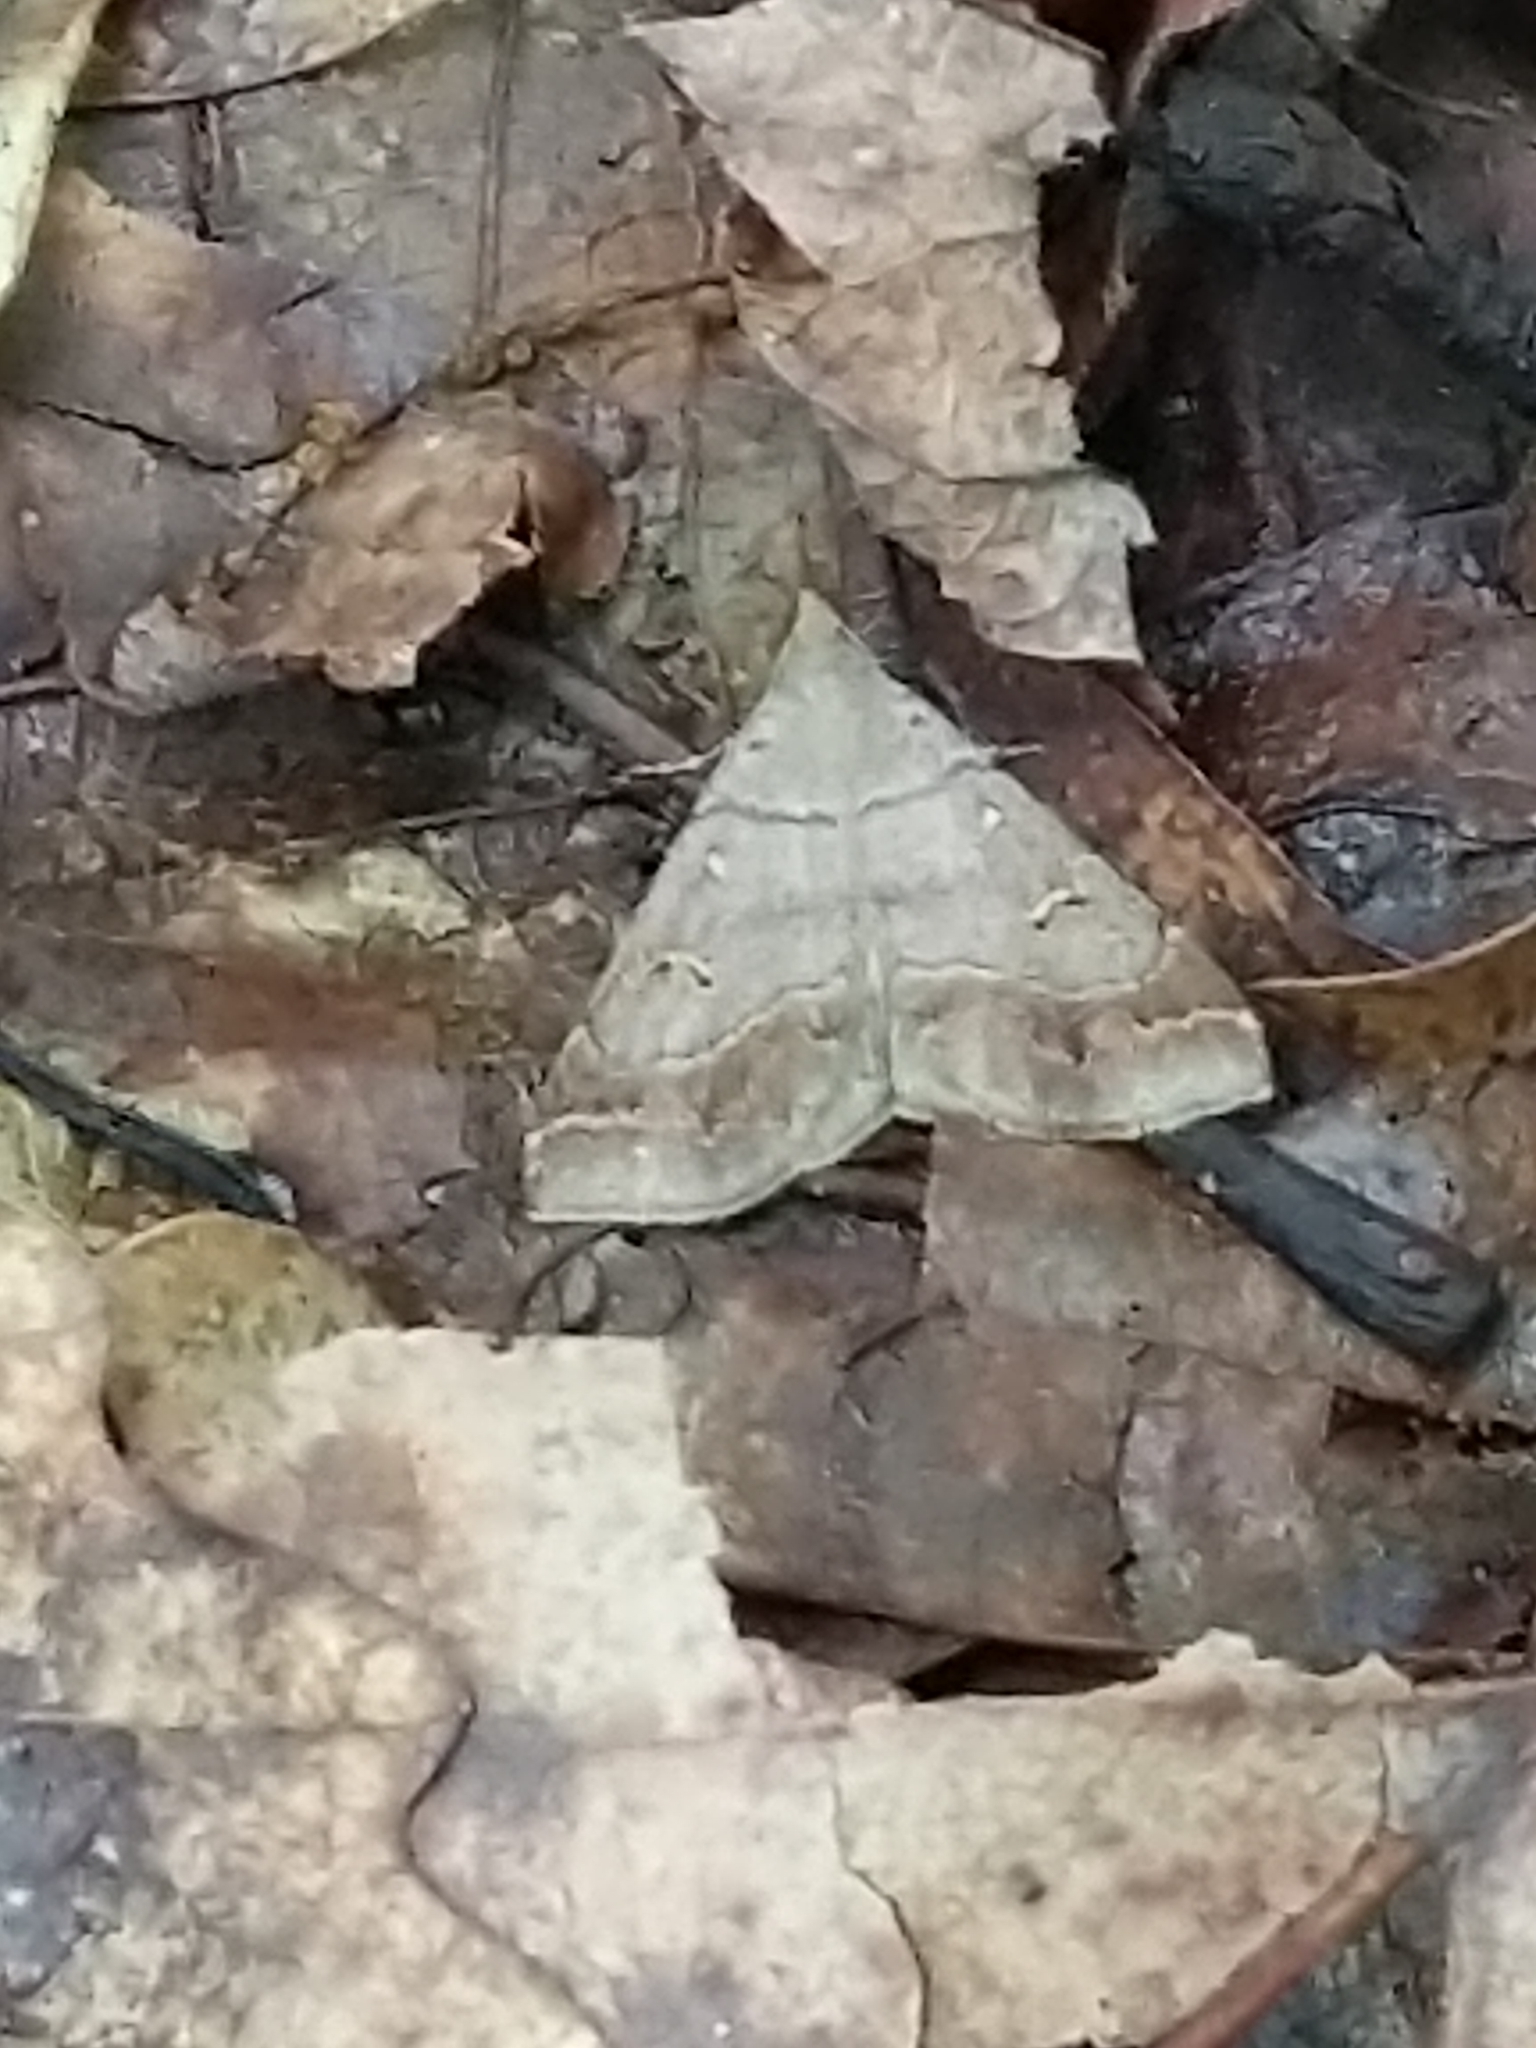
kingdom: Animalia
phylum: Arthropoda
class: Insecta
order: Lepidoptera
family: Erebidae
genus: Renia
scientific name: Renia flavipunctalis
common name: Yellow-spotted renia moth
